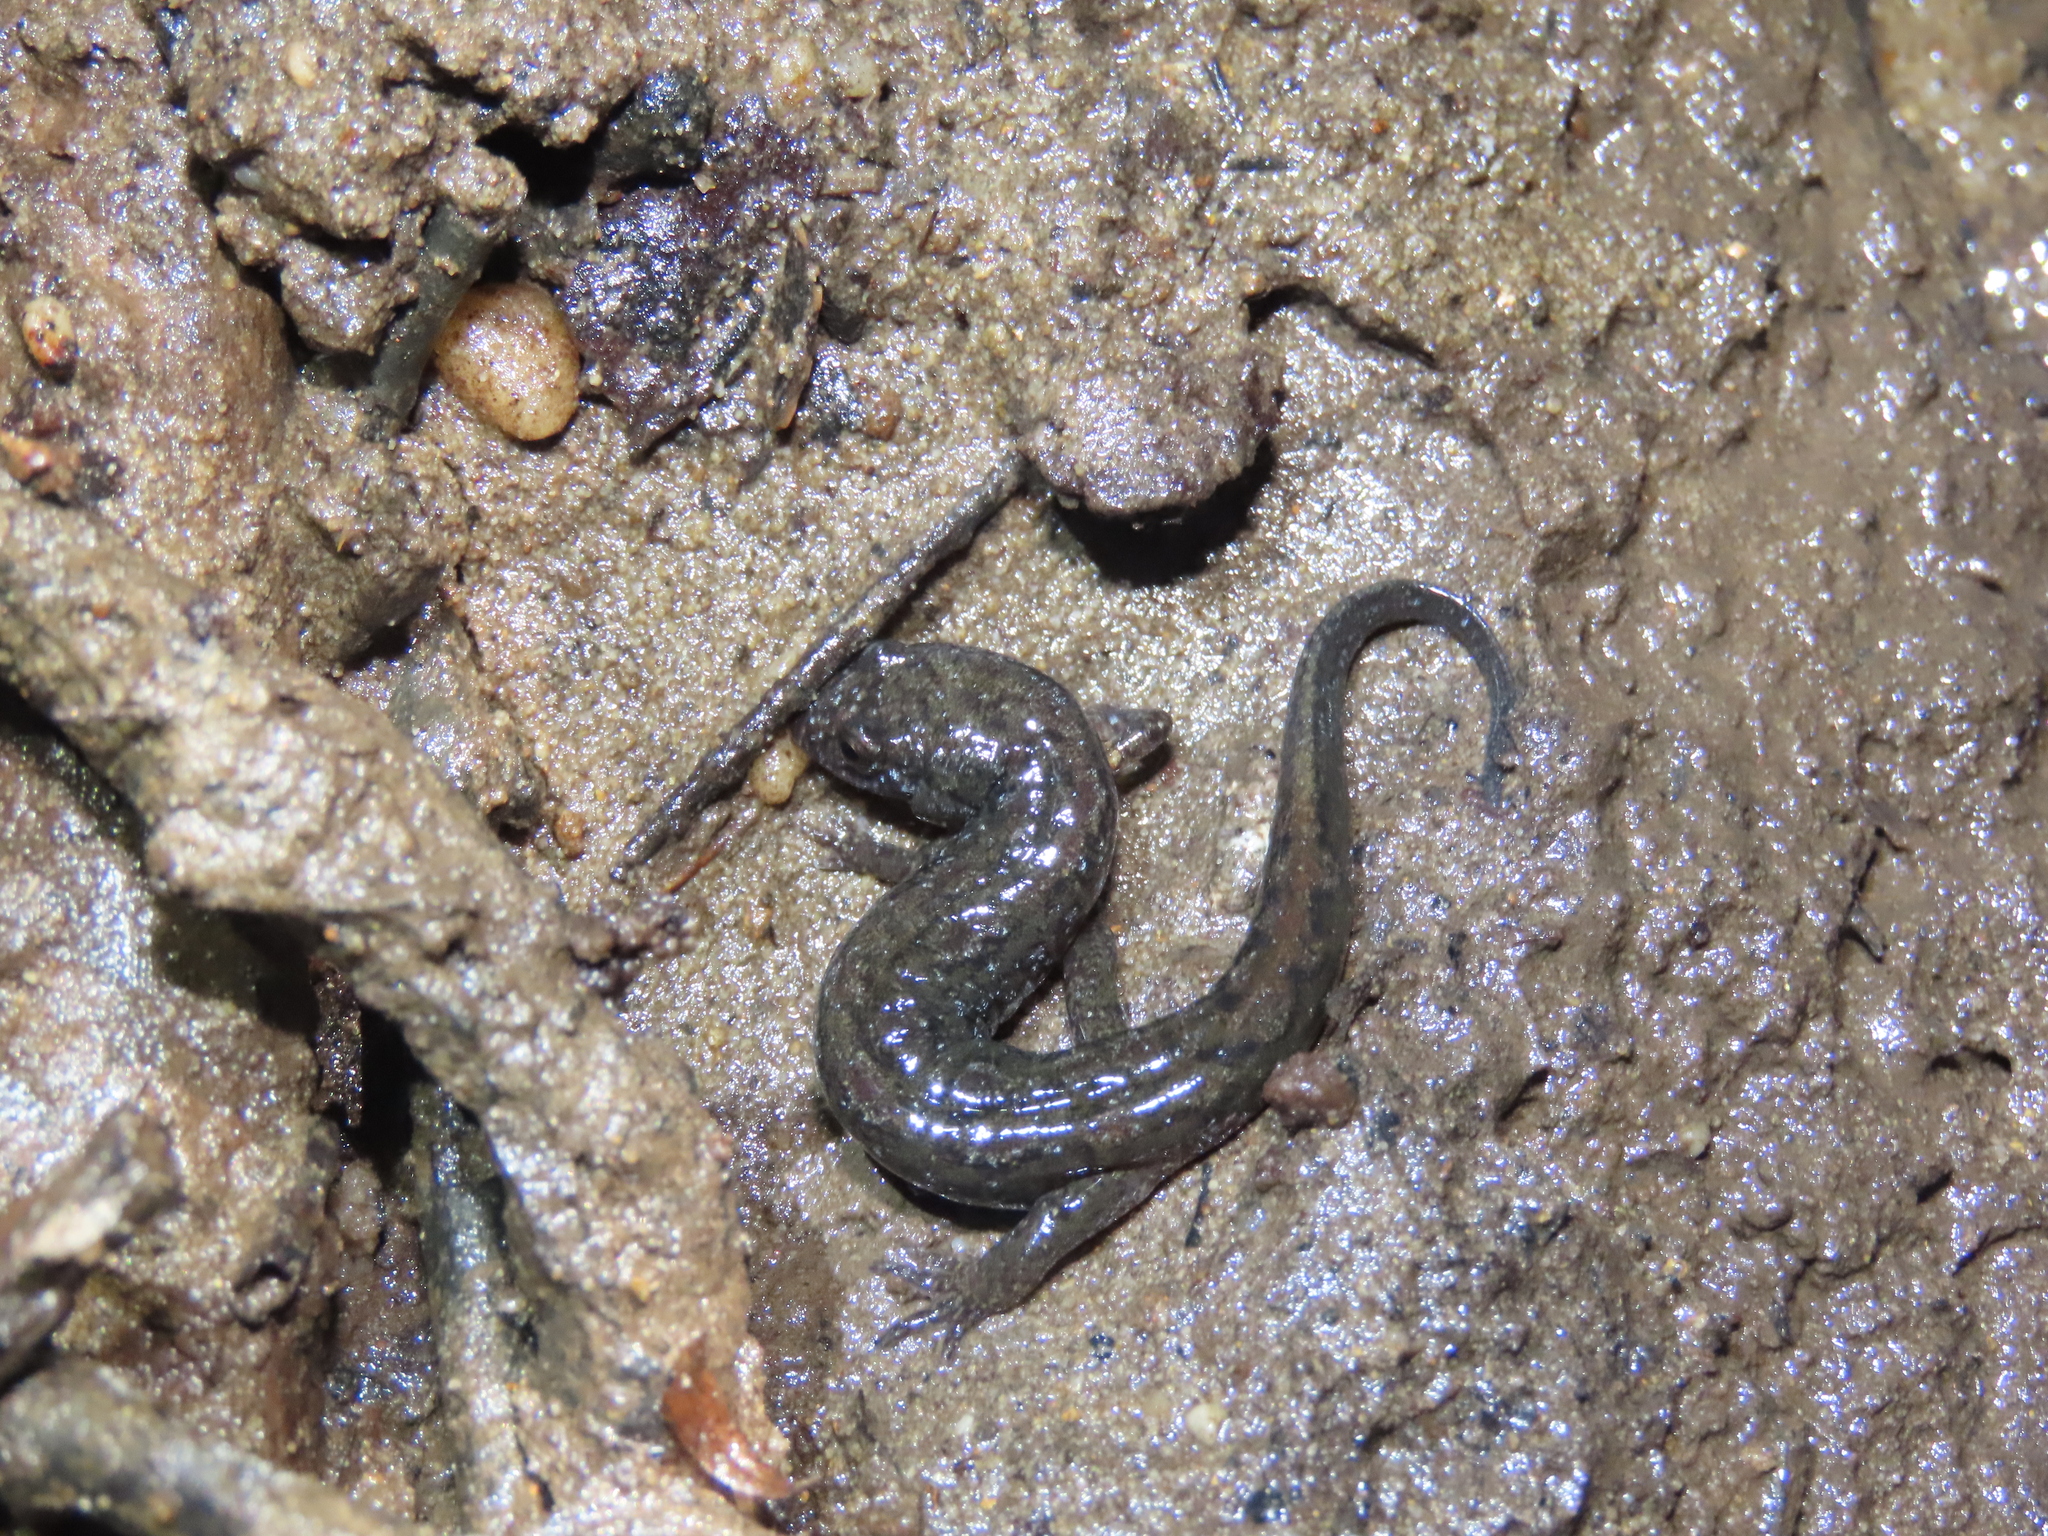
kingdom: Animalia
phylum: Chordata
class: Amphibia
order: Caudata
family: Plethodontidae
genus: Desmognathus
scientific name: Desmognathus fuscus
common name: Northern dusky salamander
